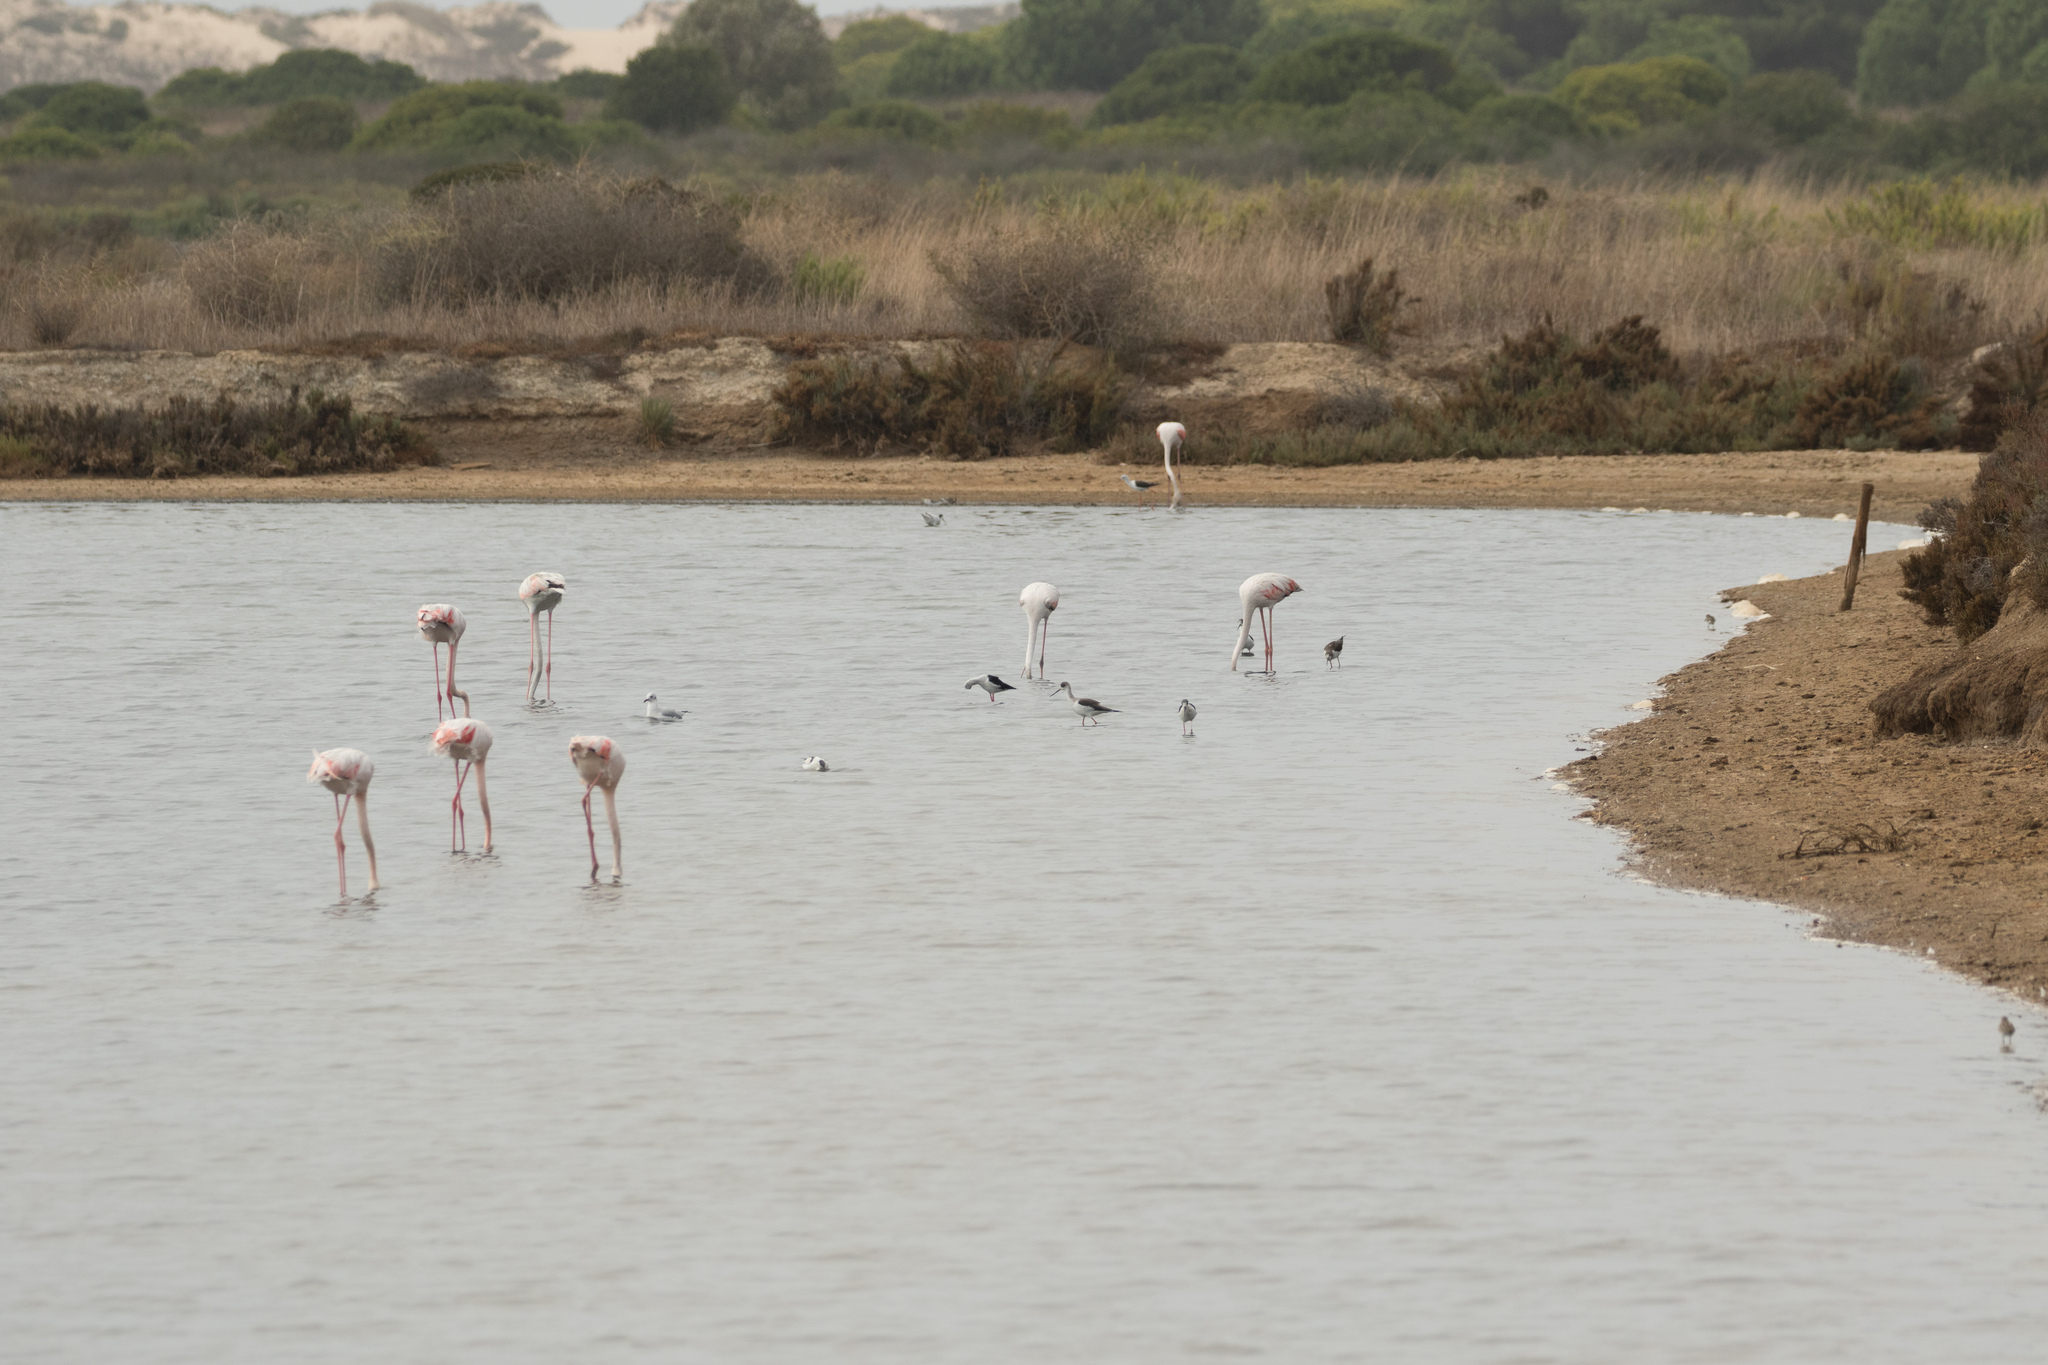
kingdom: Animalia
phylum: Chordata
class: Aves
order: Charadriiformes
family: Recurvirostridae
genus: Himantopus
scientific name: Himantopus himantopus
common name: Black-winged stilt
